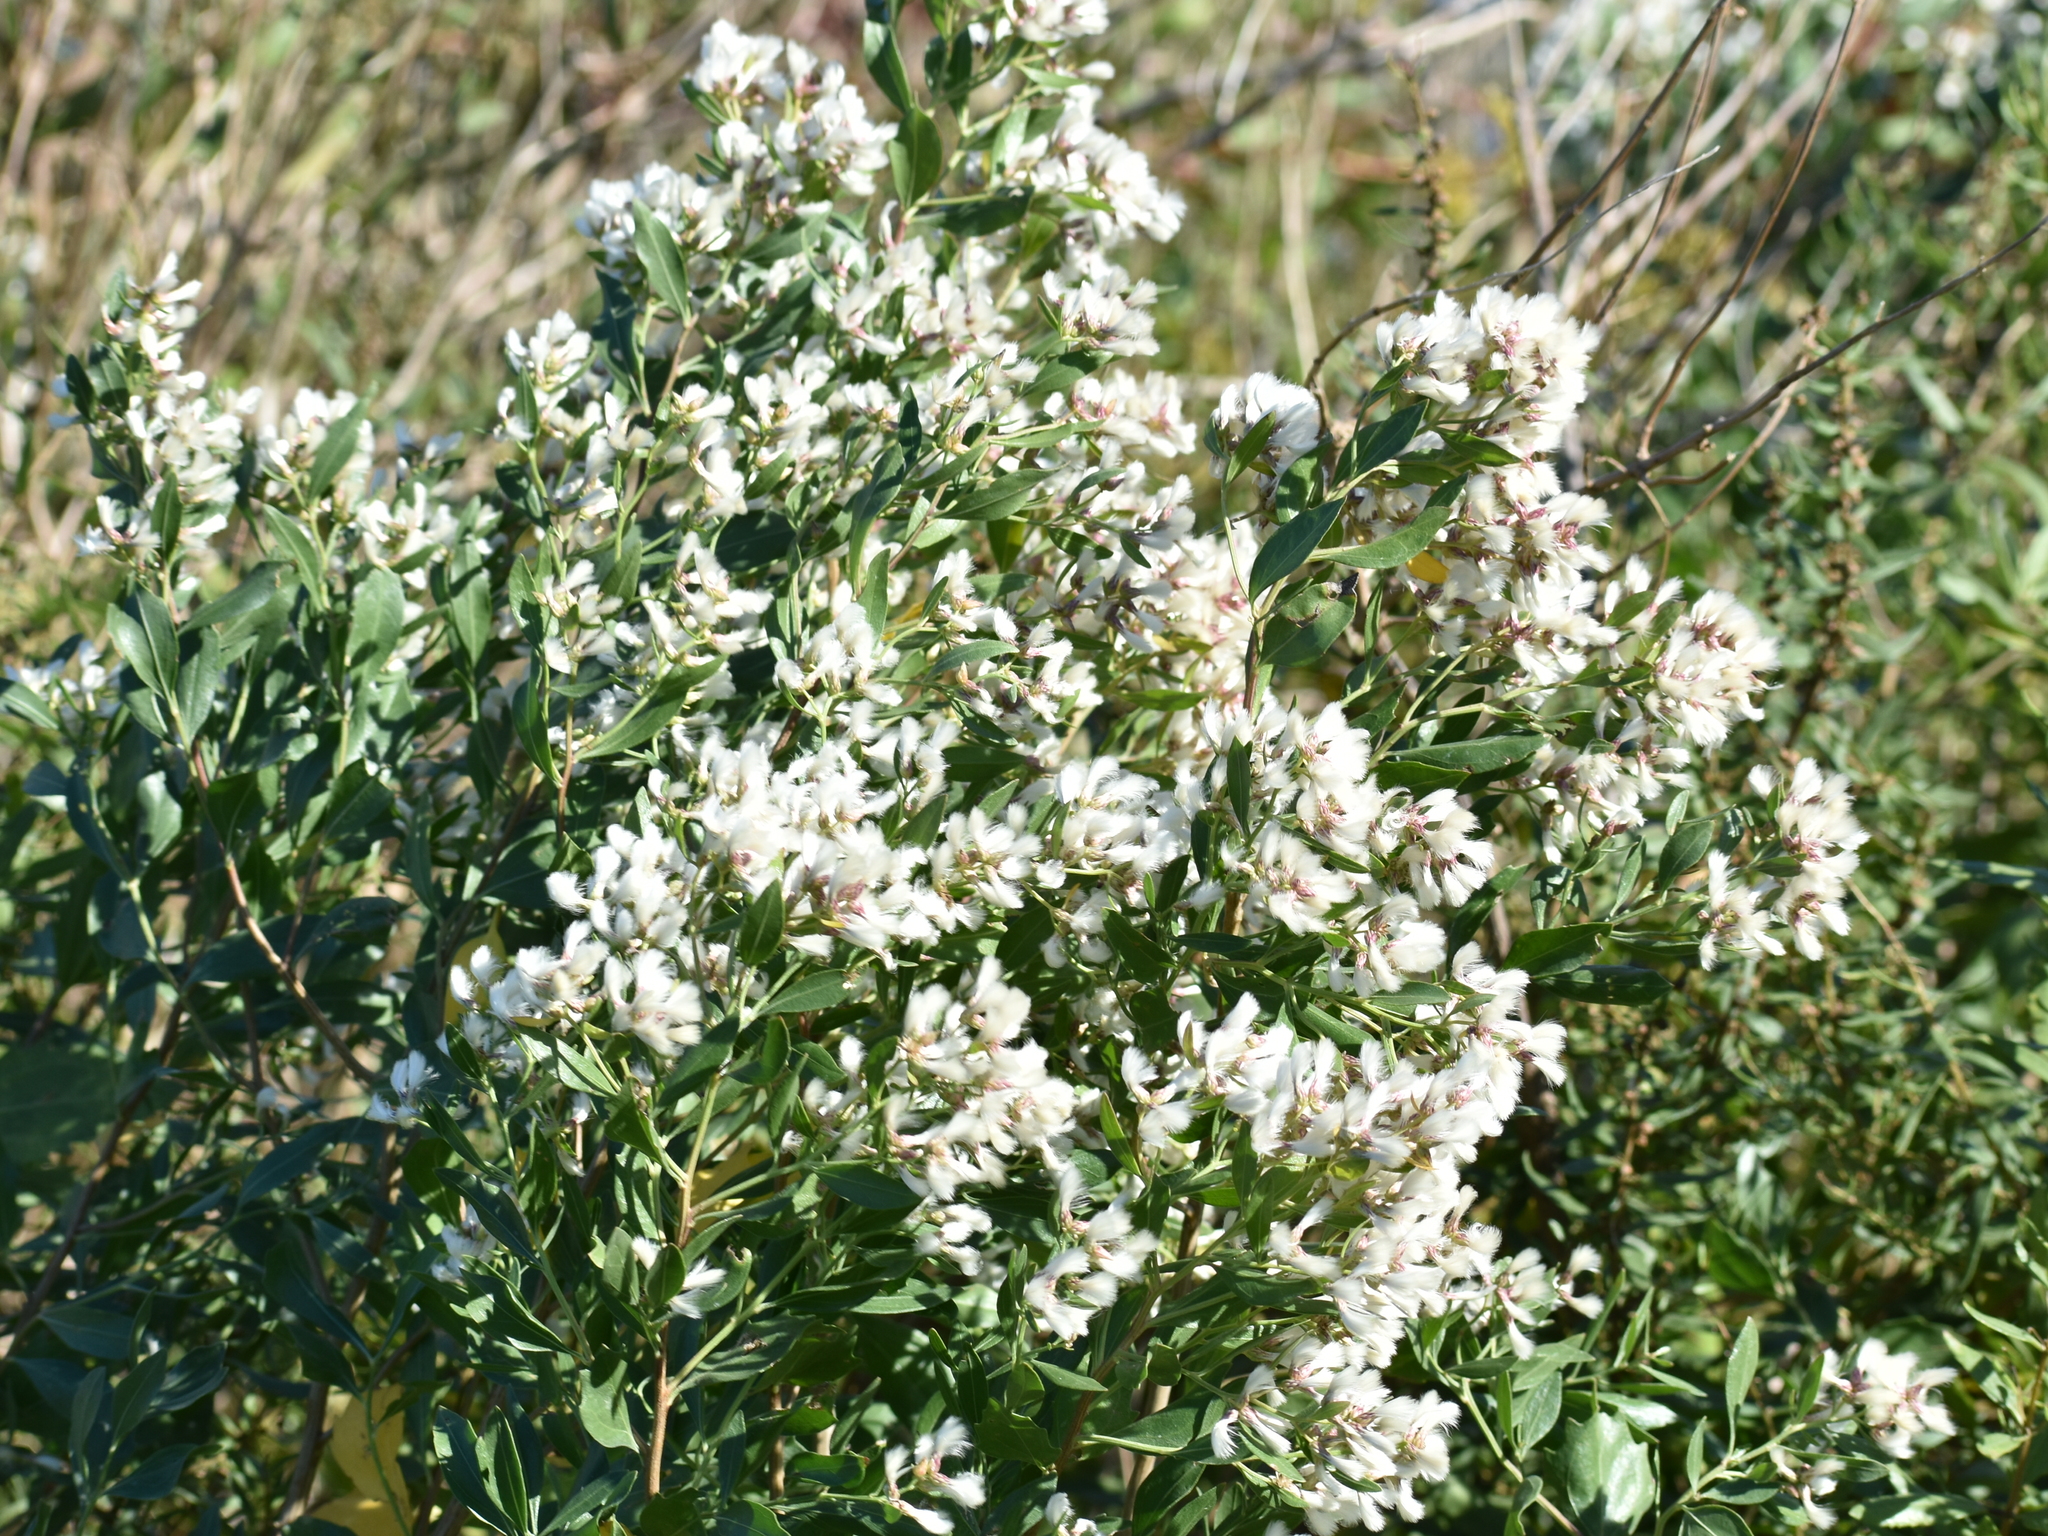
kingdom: Plantae
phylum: Tracheophyta
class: Magnoliopsida
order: Asterales
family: Asteraceae
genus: Baccharis
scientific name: Baccharis halimifolia
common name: Eastern baccharis
